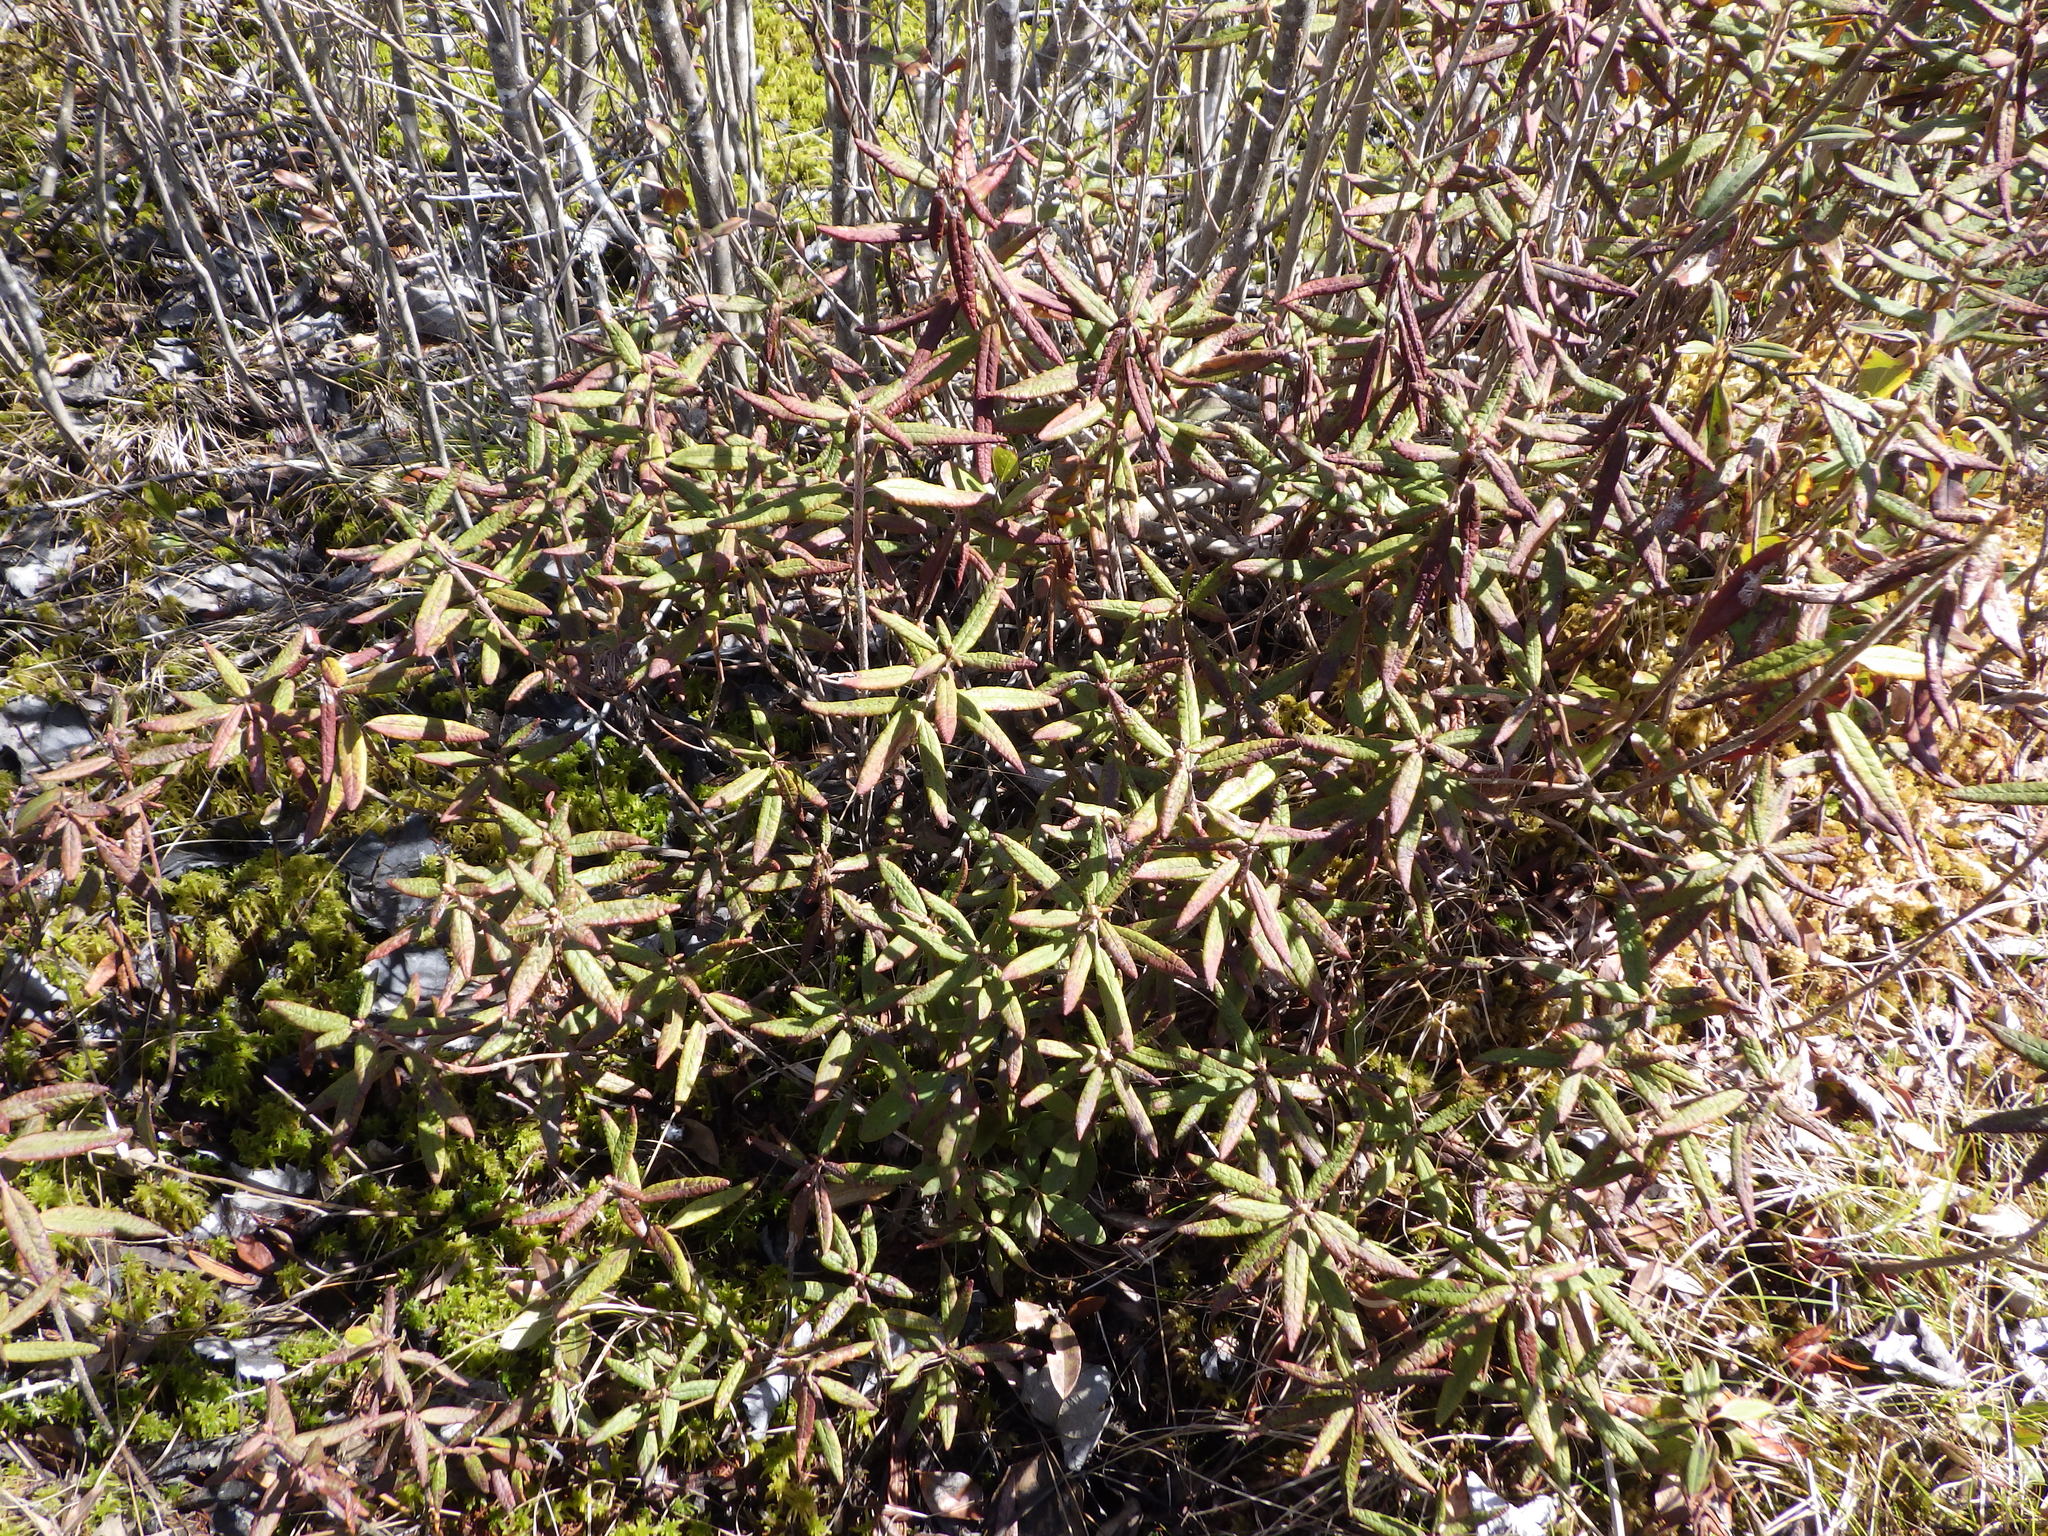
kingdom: Plantae
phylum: Tracheophyta
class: Magnoliopsida
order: Ericales
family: Ericaceae
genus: Rhododendron
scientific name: Rhododendron groenlandicum
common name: Bog labrador tea
